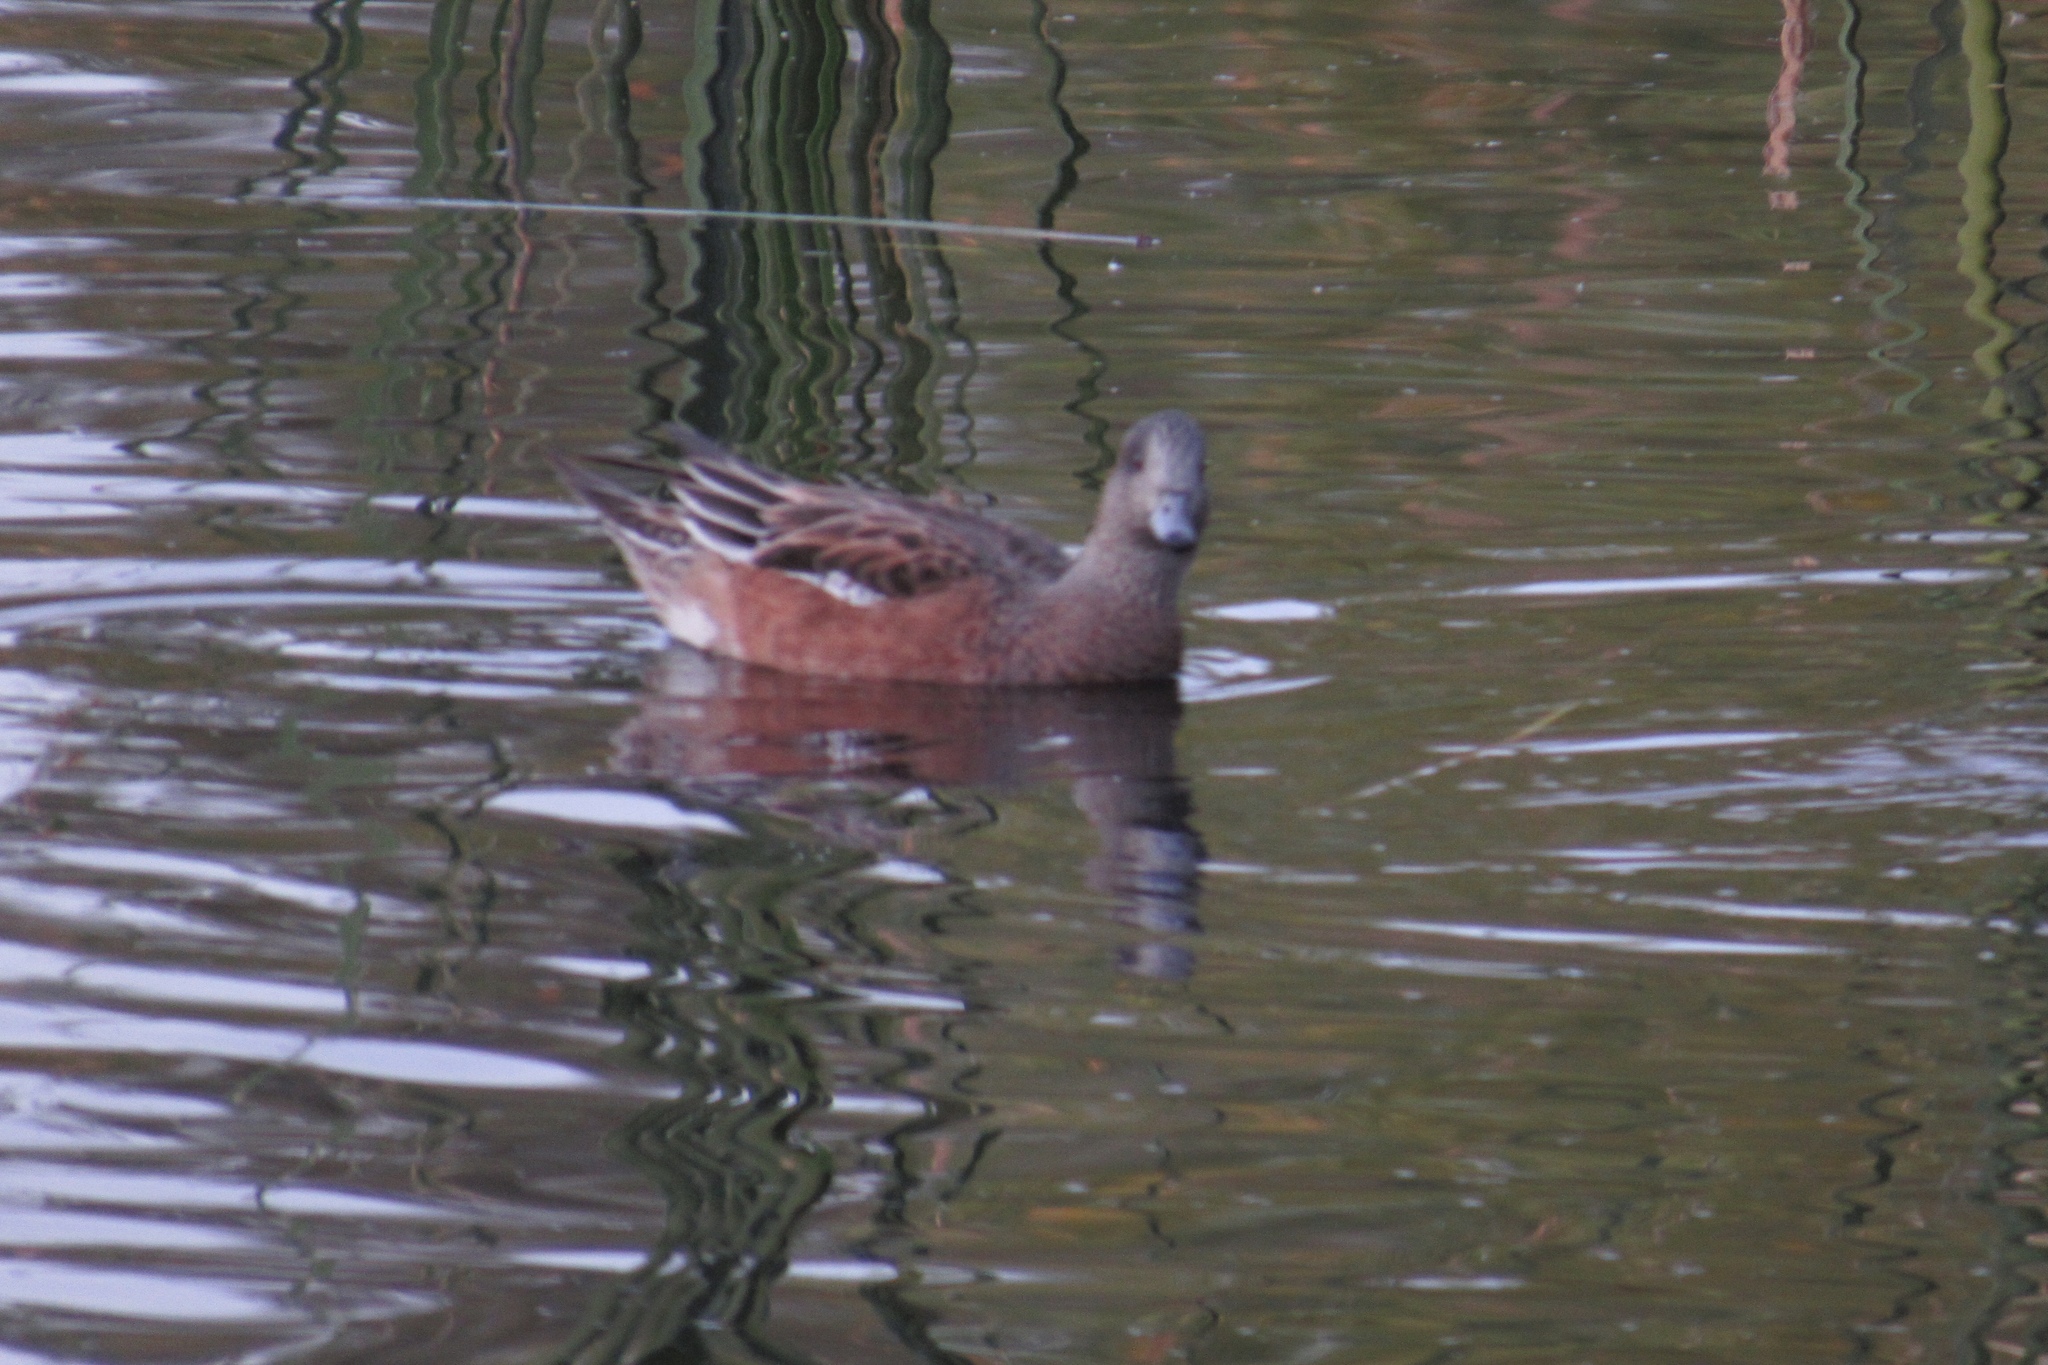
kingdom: Animalia
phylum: Chordata
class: Aves
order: Anseriformes
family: Anatidae
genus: Mareca
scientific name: Mareca americana
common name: American wigeon
